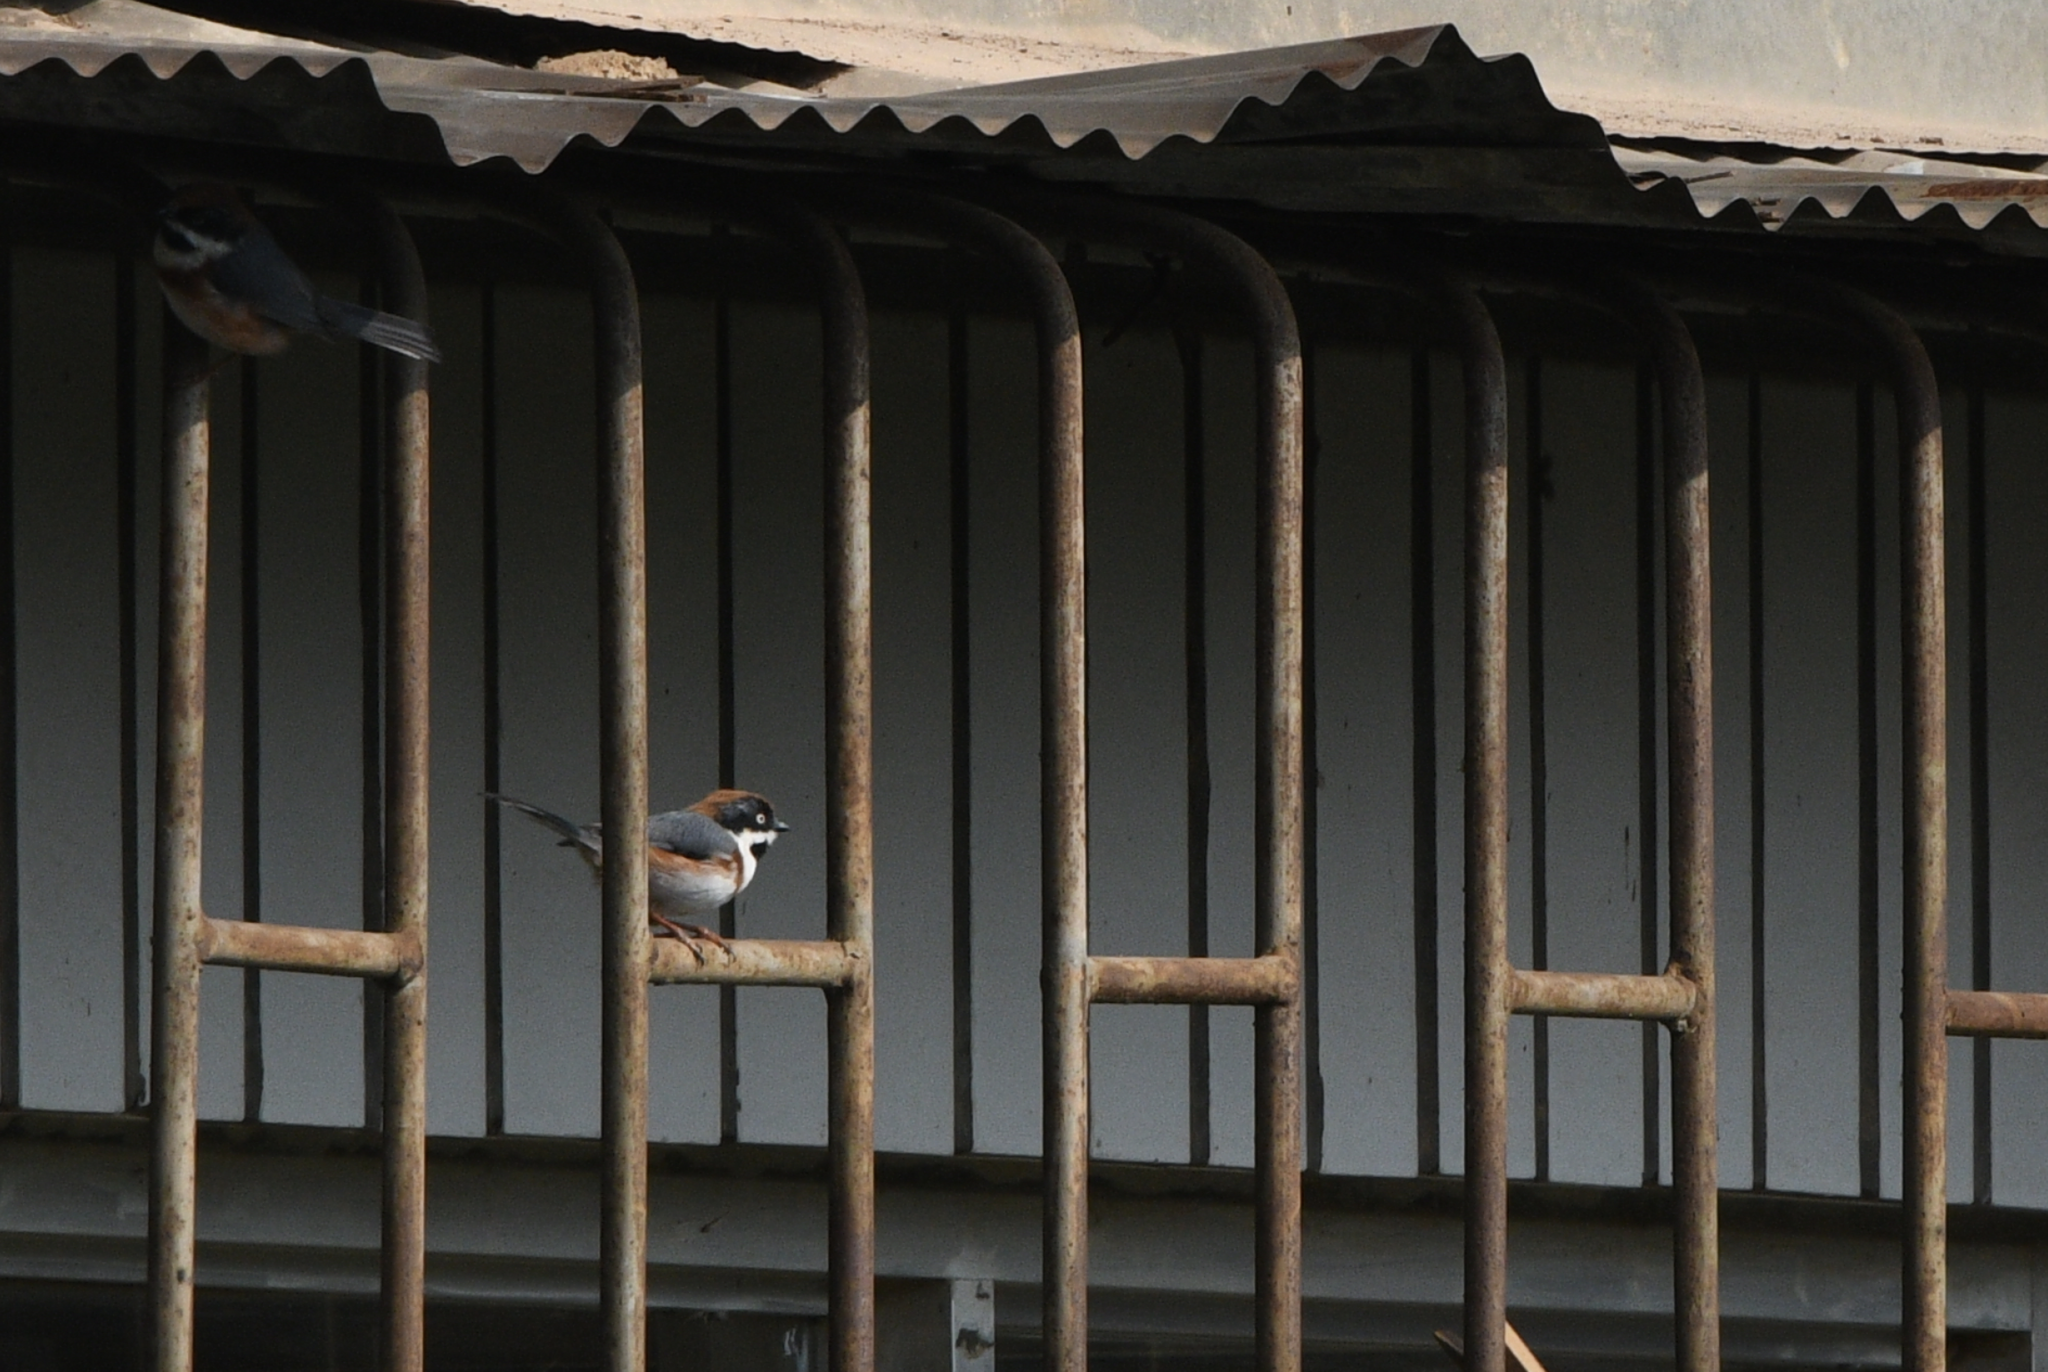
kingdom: Animalia
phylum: Chordata
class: Aves
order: Passeriformes
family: Aegithalidae
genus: Aegithalos
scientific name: Aegithalos concinnus
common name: Black-throated bushtit
